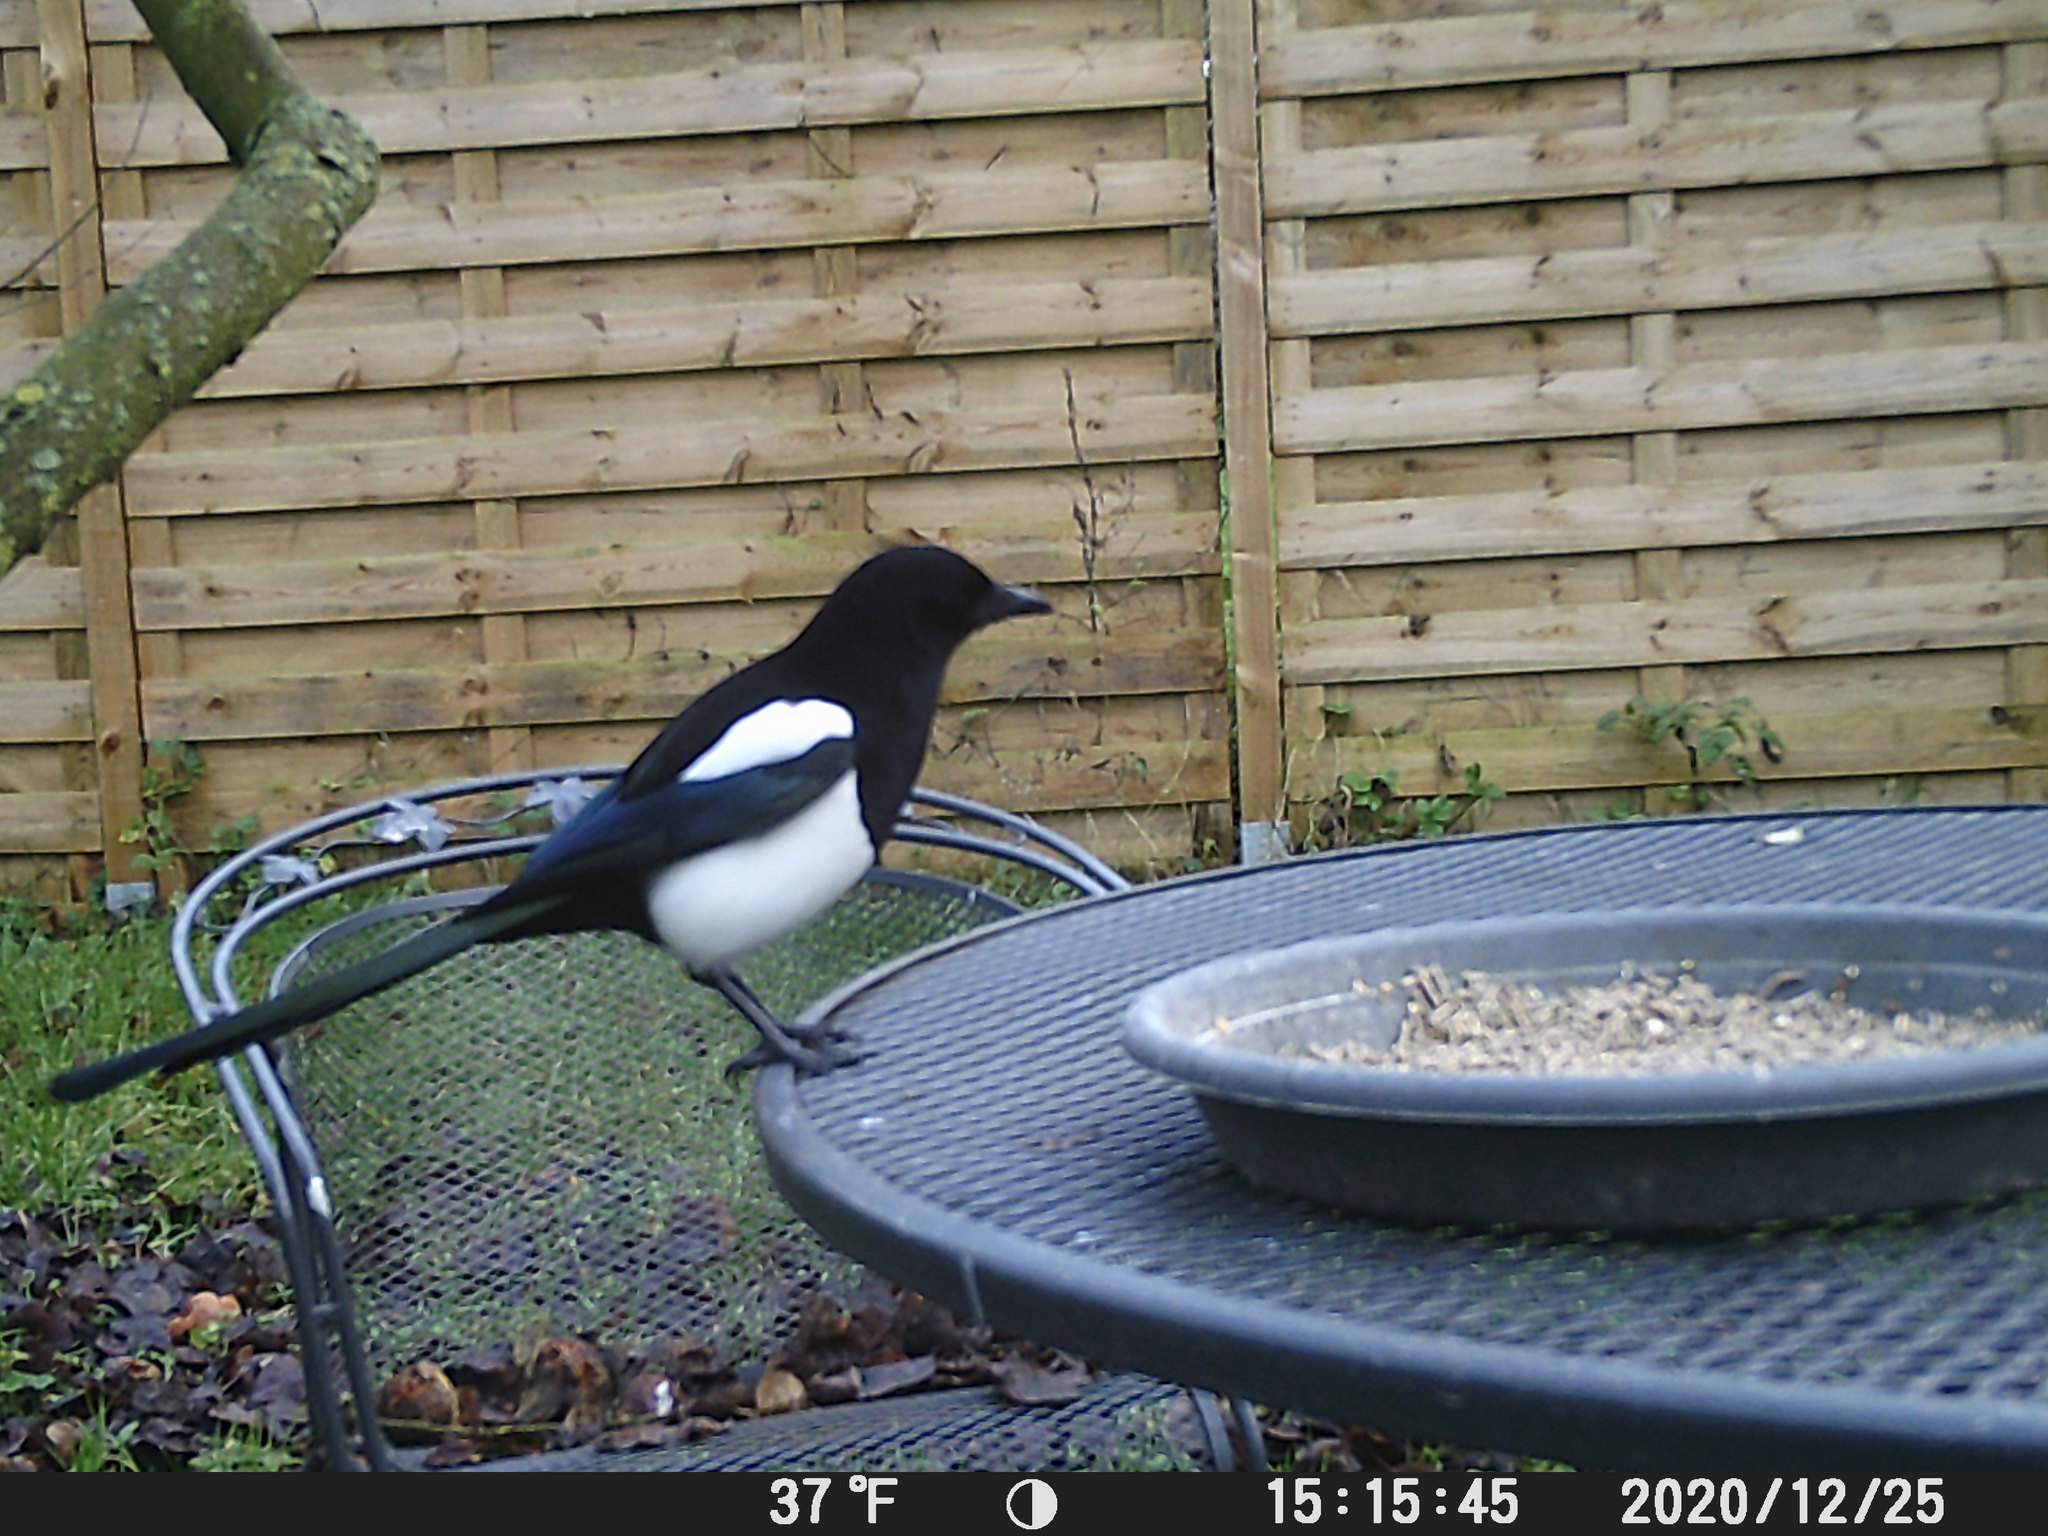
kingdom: Animalia
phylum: Chordata
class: Aves
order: Passeriformes
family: Corvidae
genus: Pica
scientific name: Pica pica
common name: Eurasian magpie
